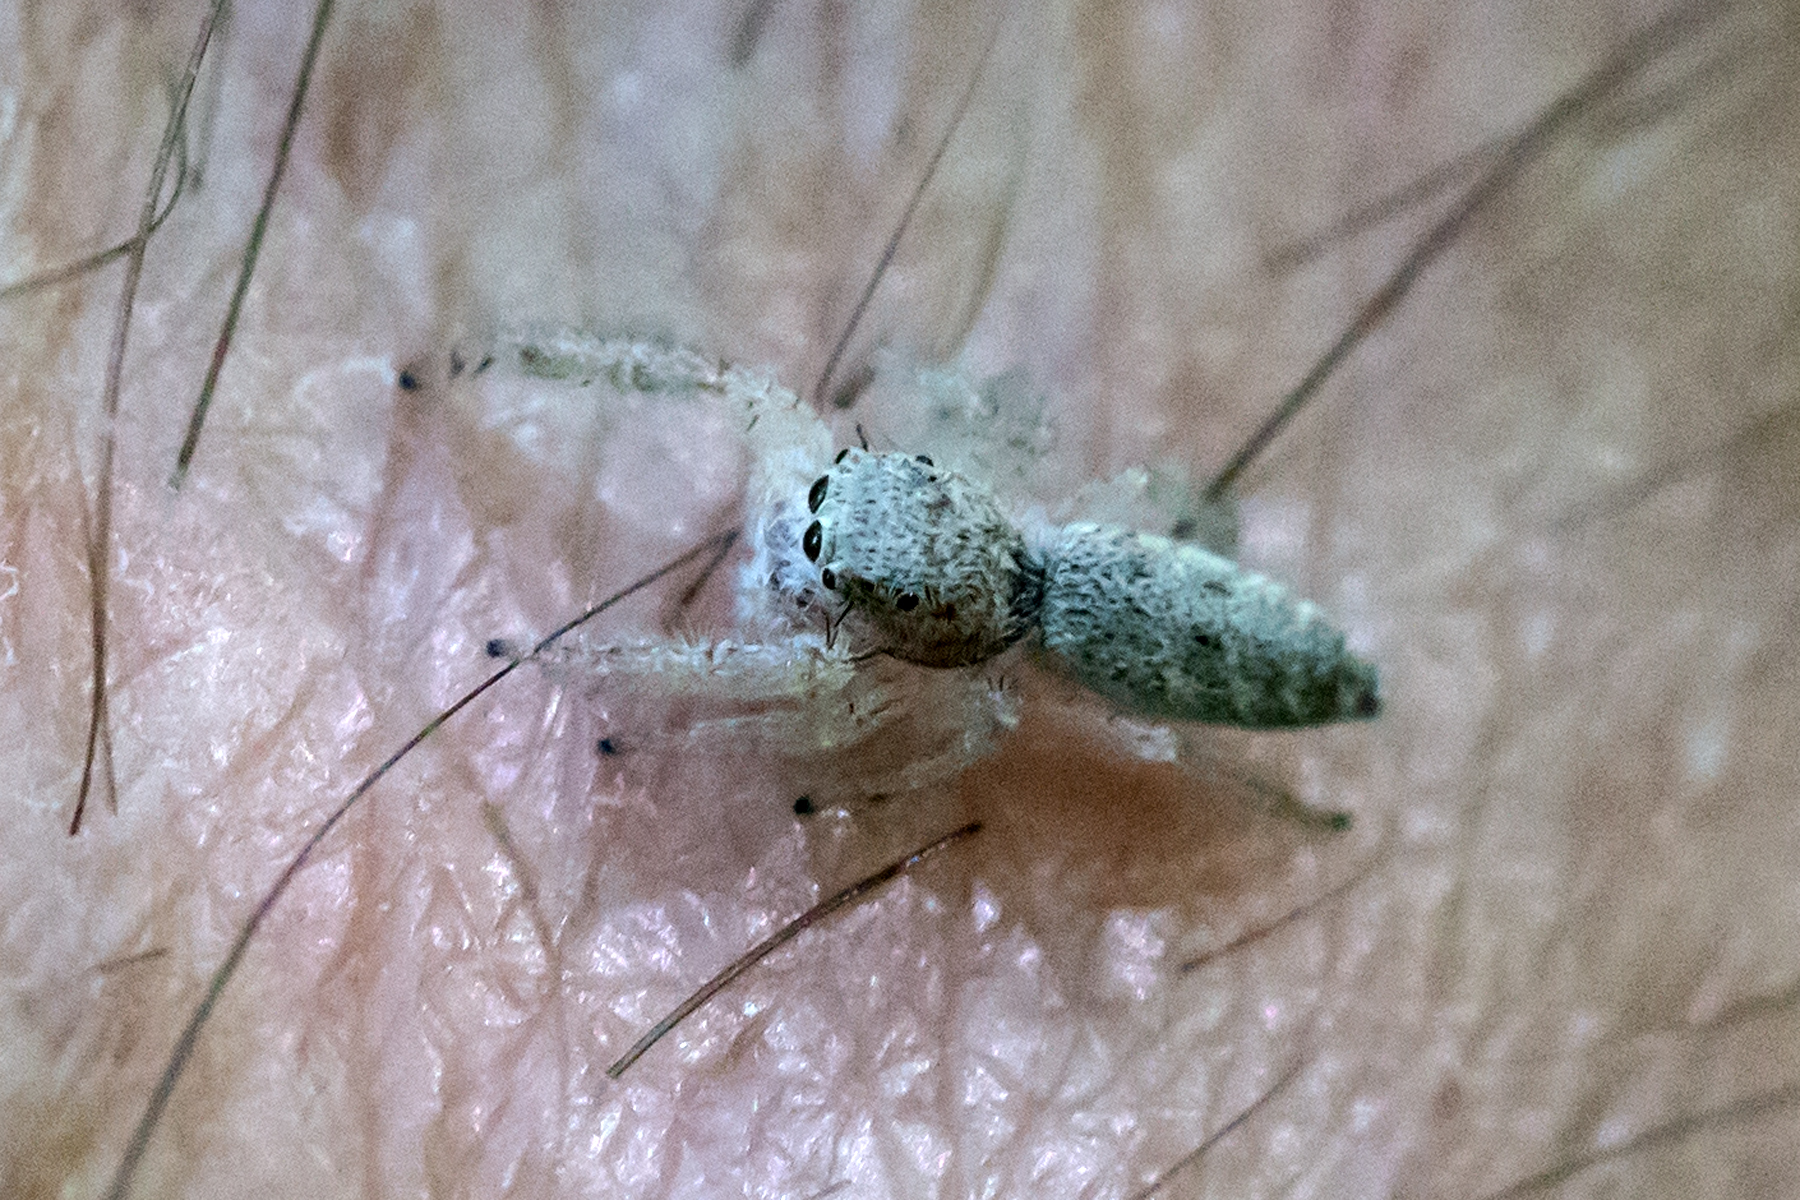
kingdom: Animalia
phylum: Arthropoda
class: Arachnida
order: Araneae
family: Salticidae
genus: Hentzia
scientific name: Hentzia mitrata
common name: White-jawed jumping spider
